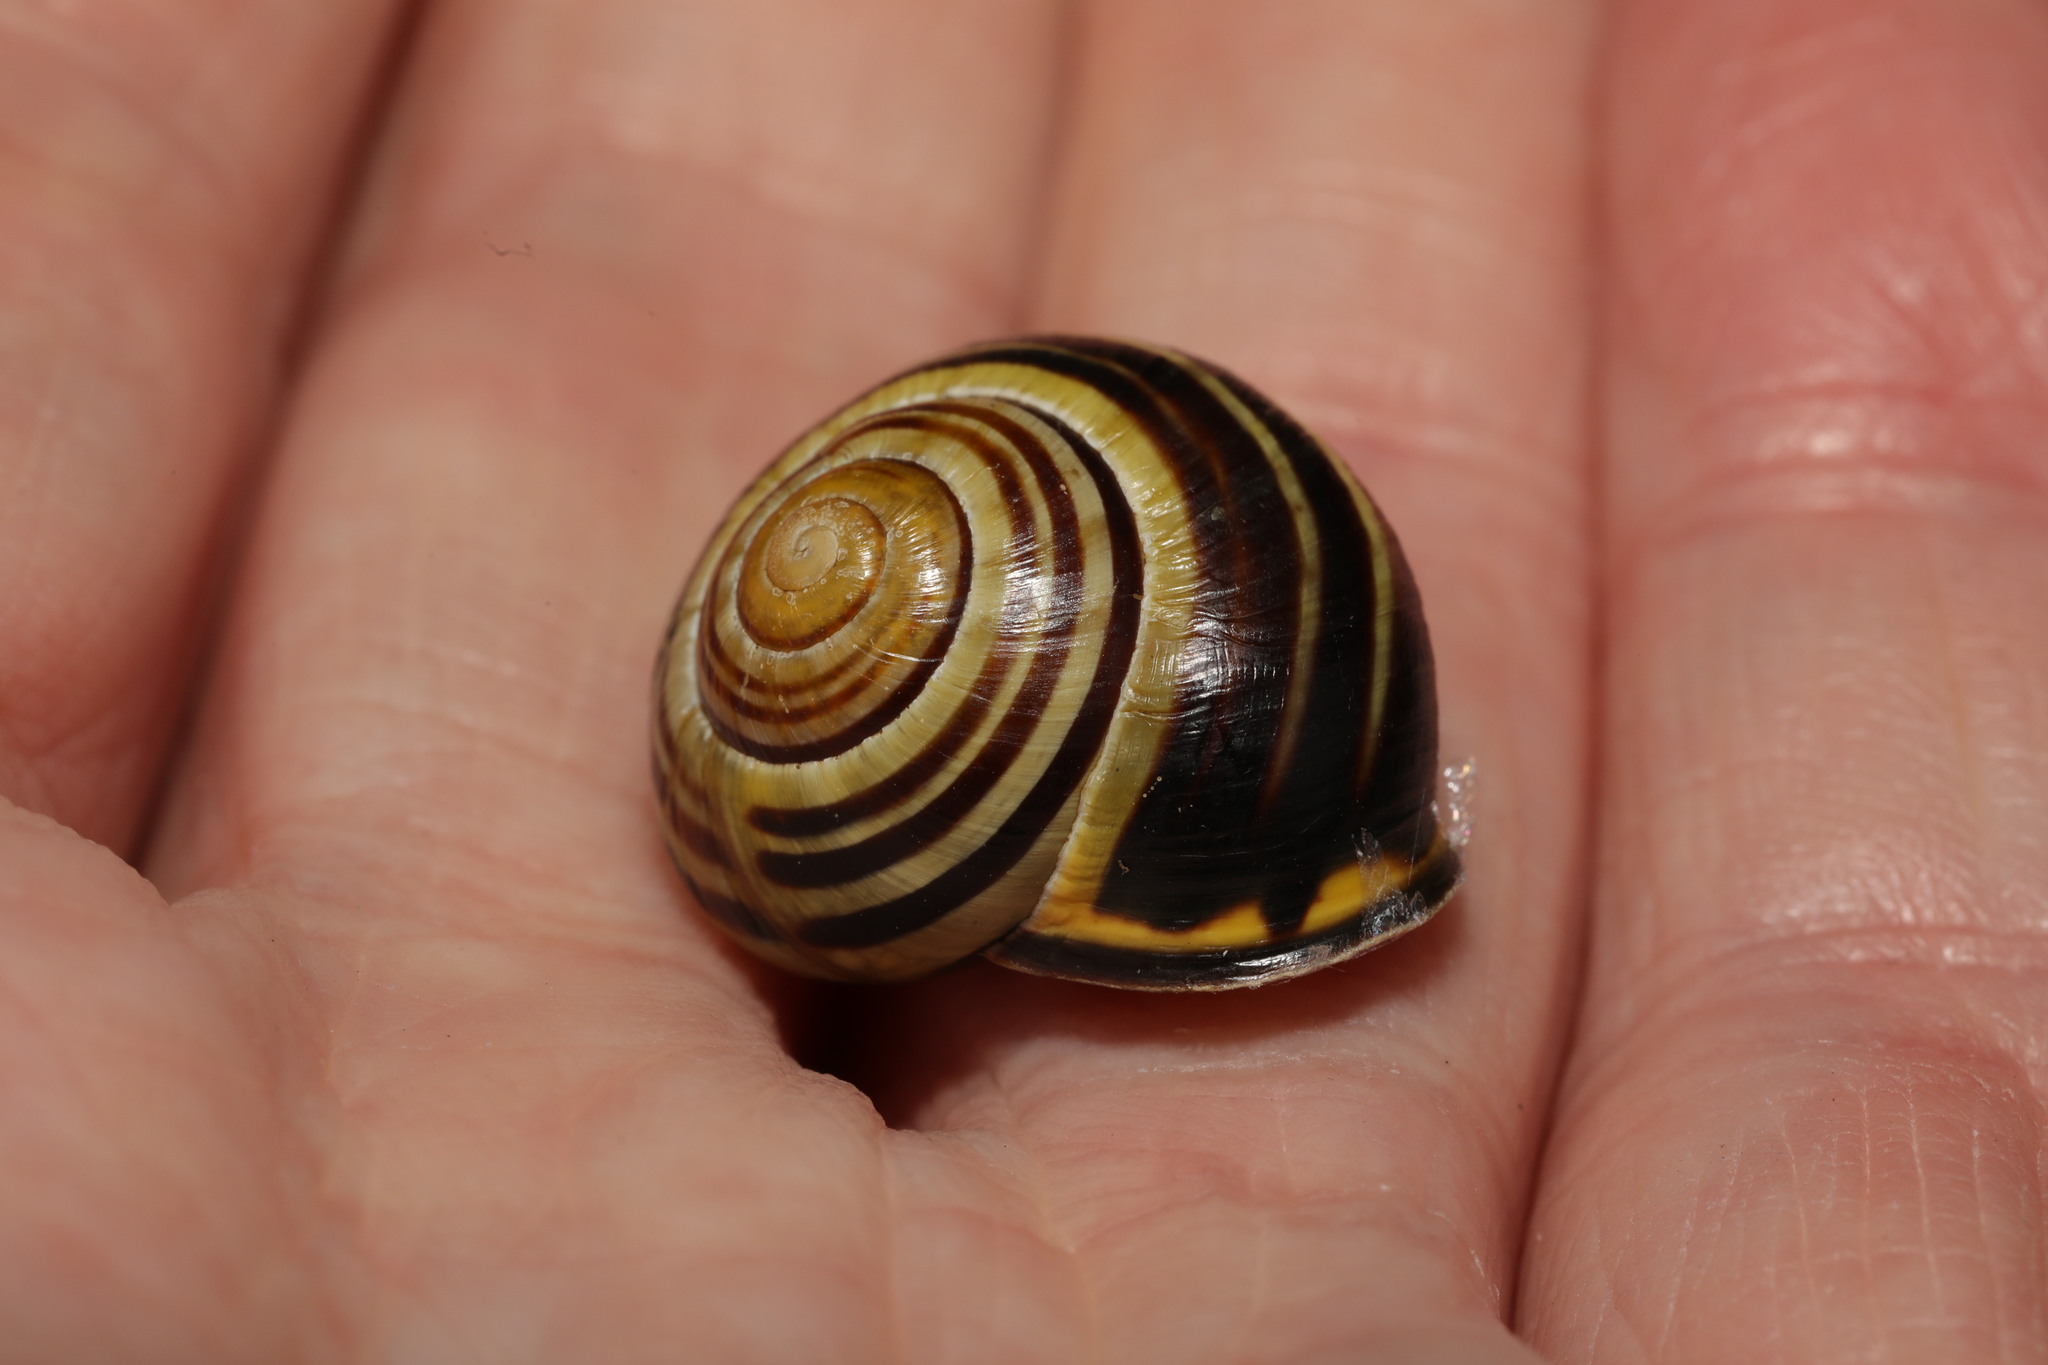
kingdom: Animalia
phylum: Mollusca
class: Gastropoda
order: Stylommatophora
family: Helicidae
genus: Cepaea
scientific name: Cepaea nemoralis
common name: Grovesnail
